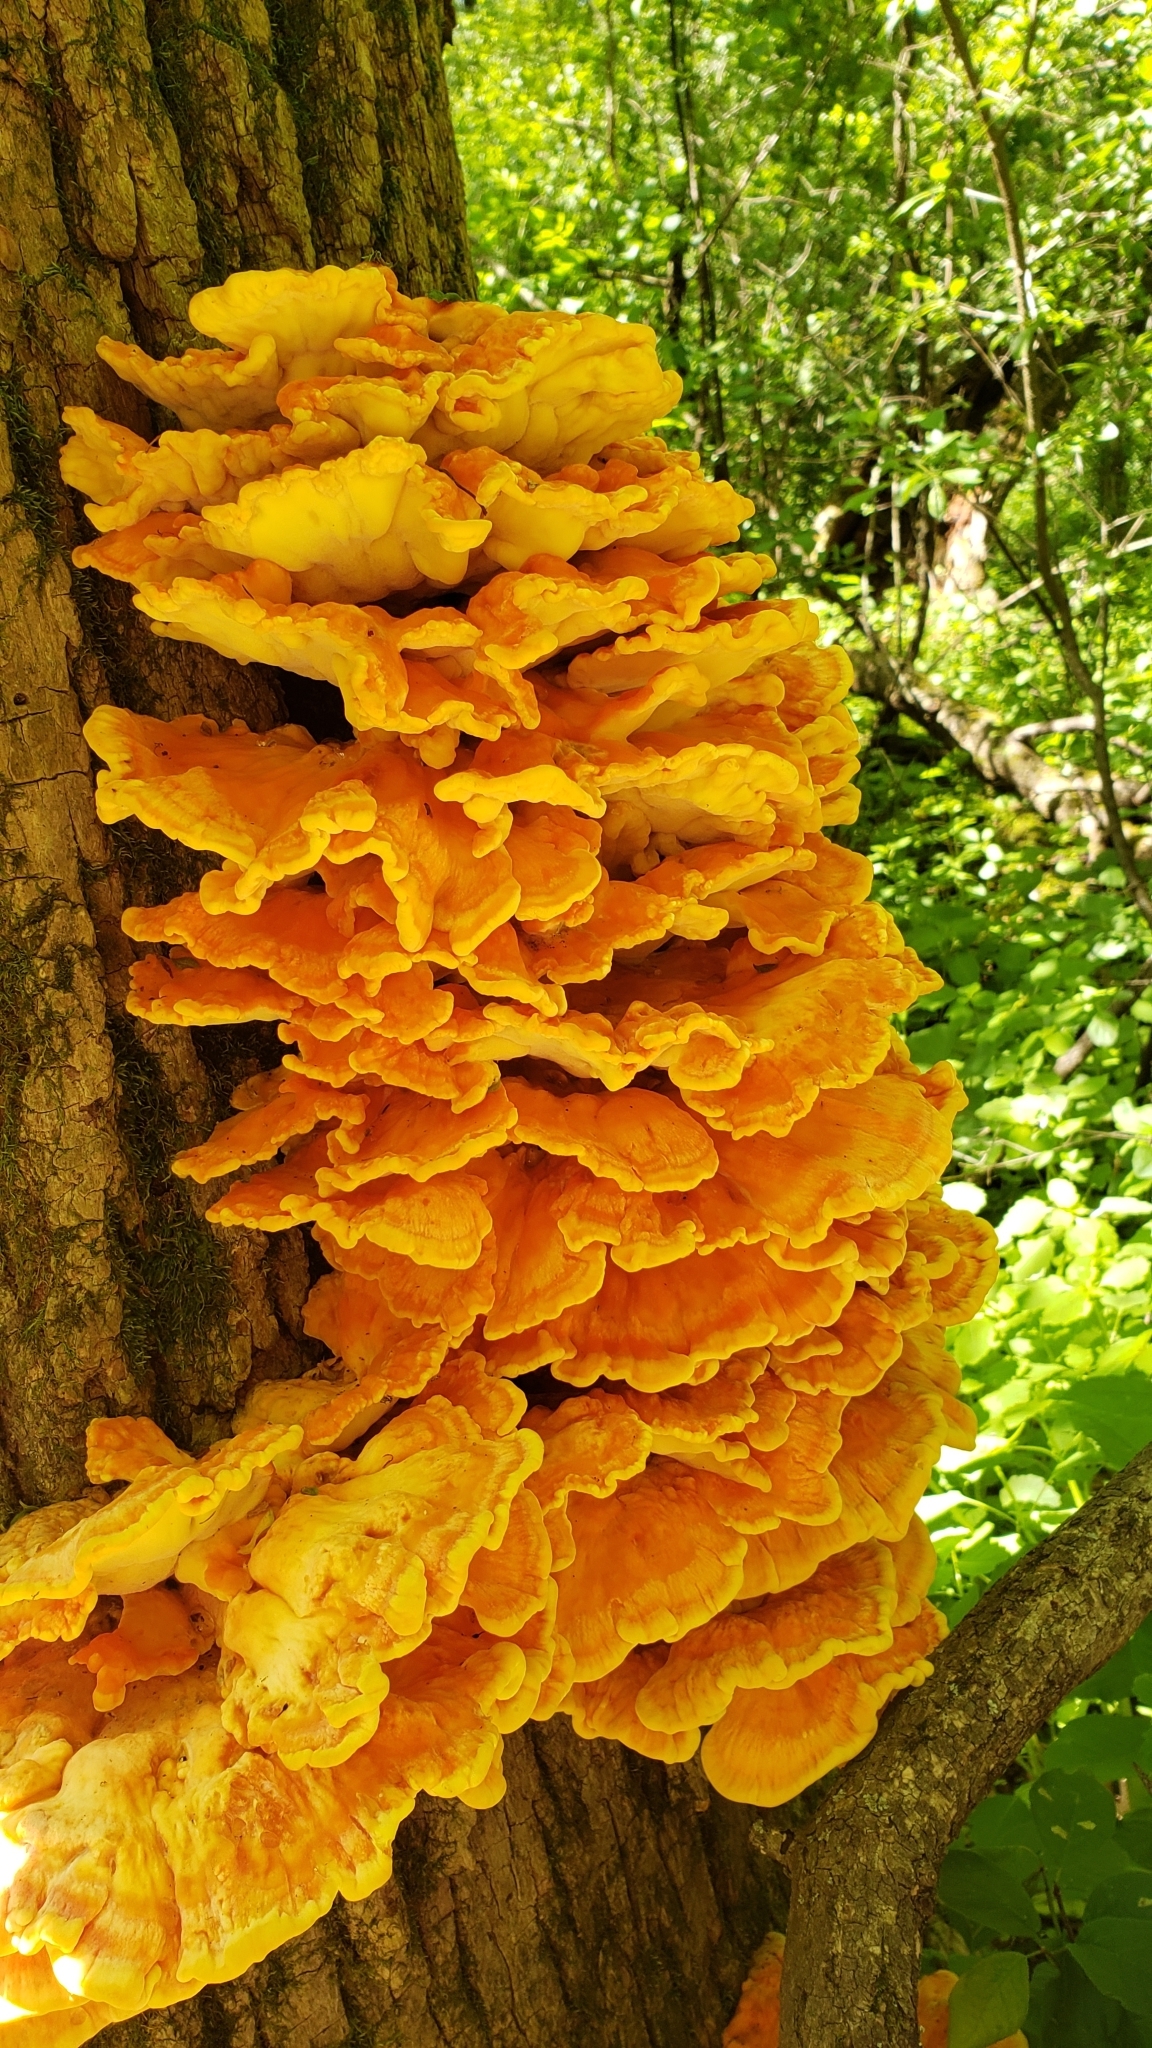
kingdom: Fungi
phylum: Basidiomycota
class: Agaricomycetes
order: Polyporales
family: Laetiporaceae
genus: Laetiporus
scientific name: Laetiporus sulphureus
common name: Chicken of the woods
